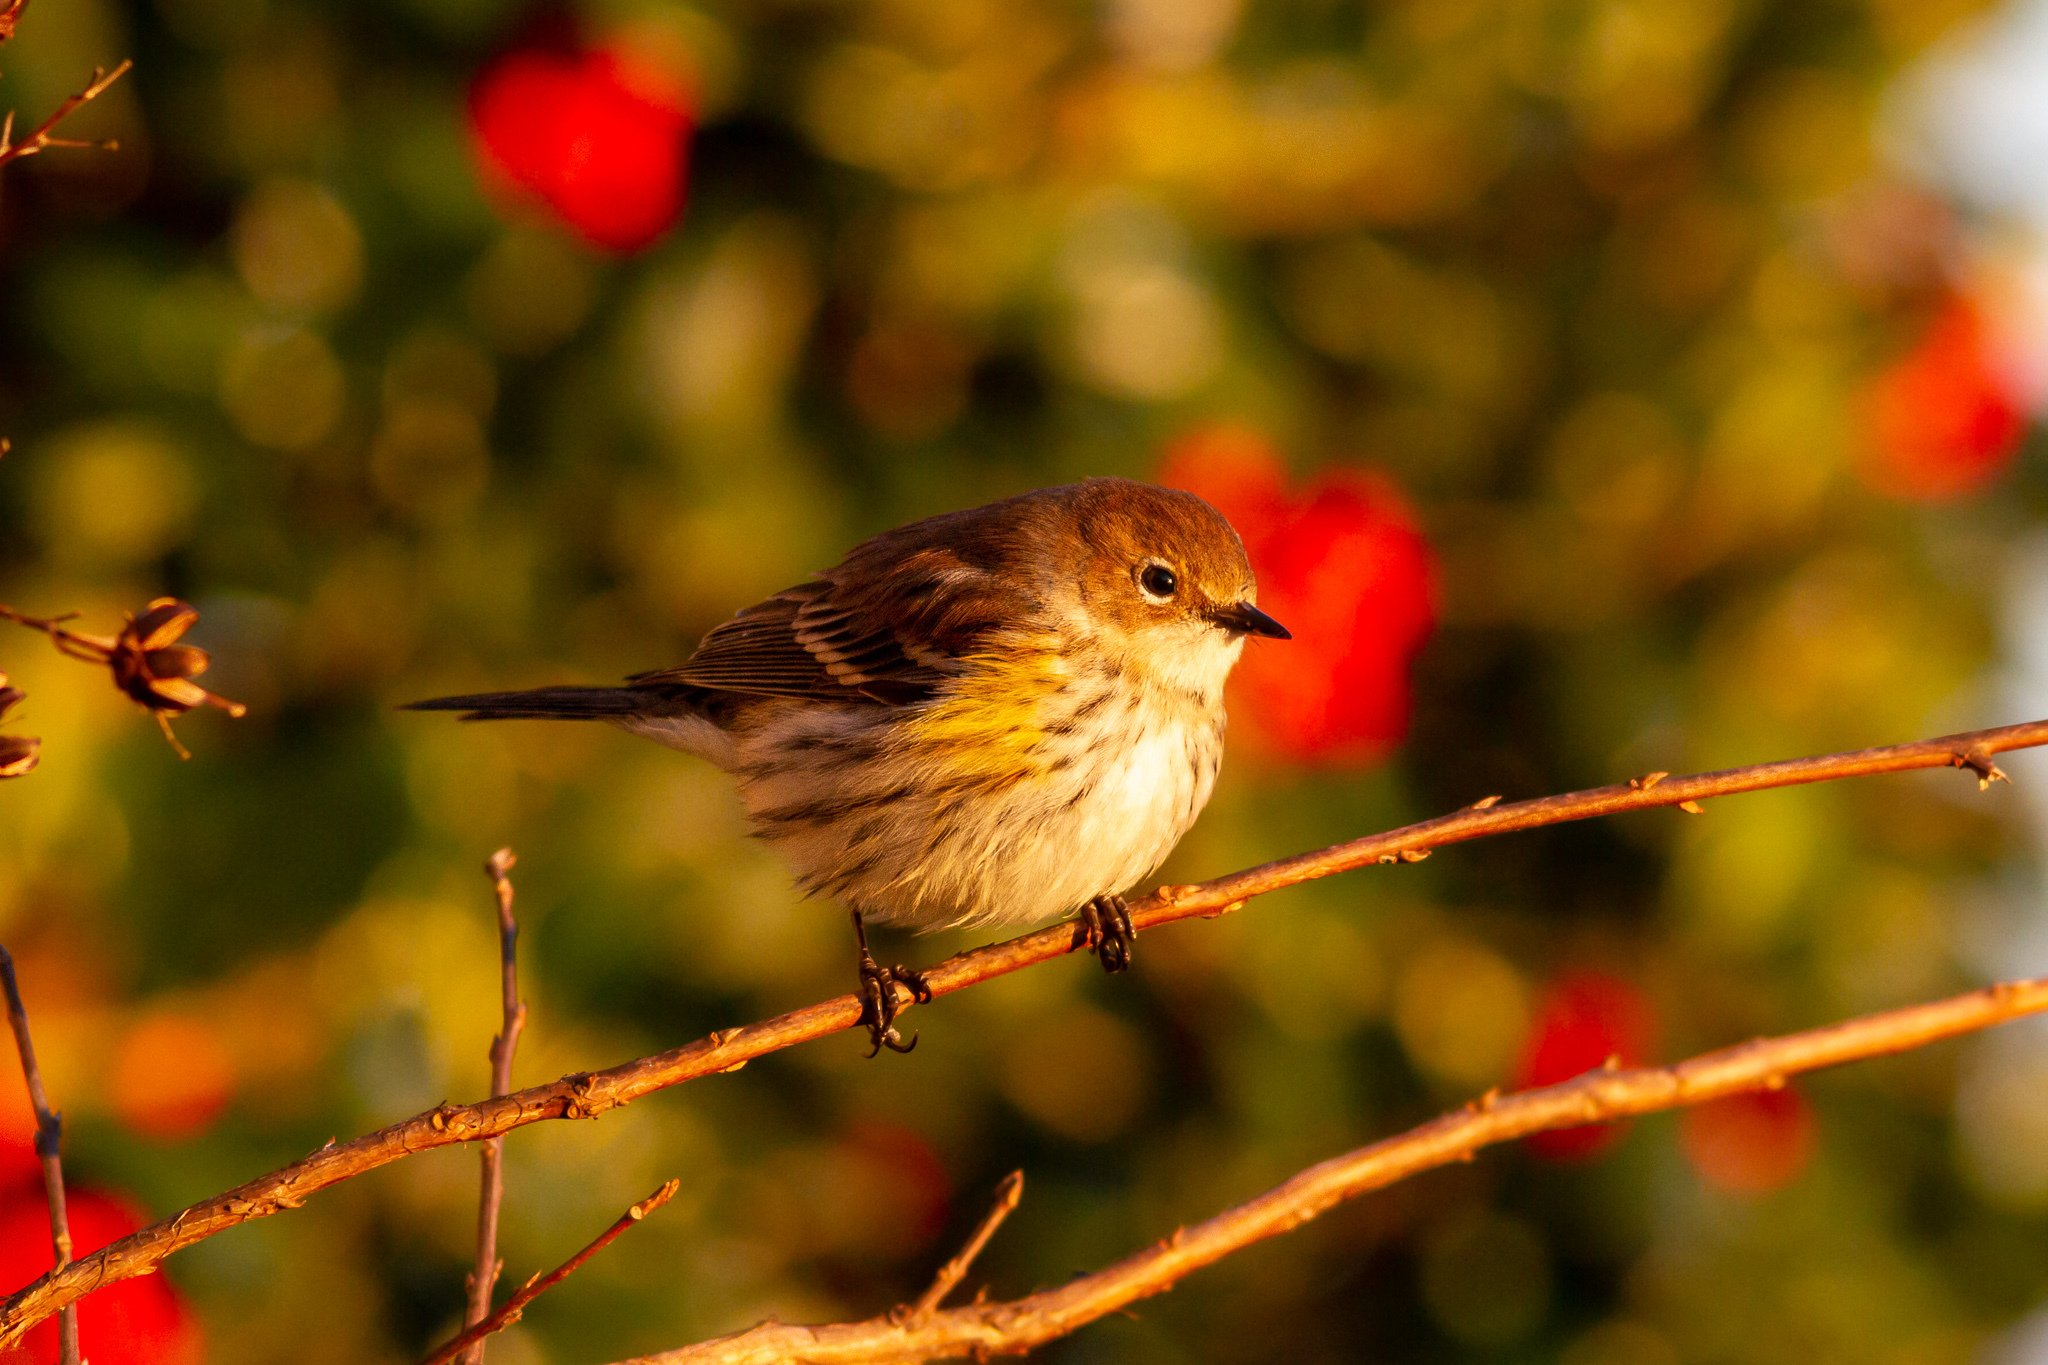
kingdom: Animalia
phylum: Chordata
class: Aves
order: Passeriformes
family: Parulidae
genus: Setophaga
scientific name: Setophaga coronata
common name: Myrtle warbler
